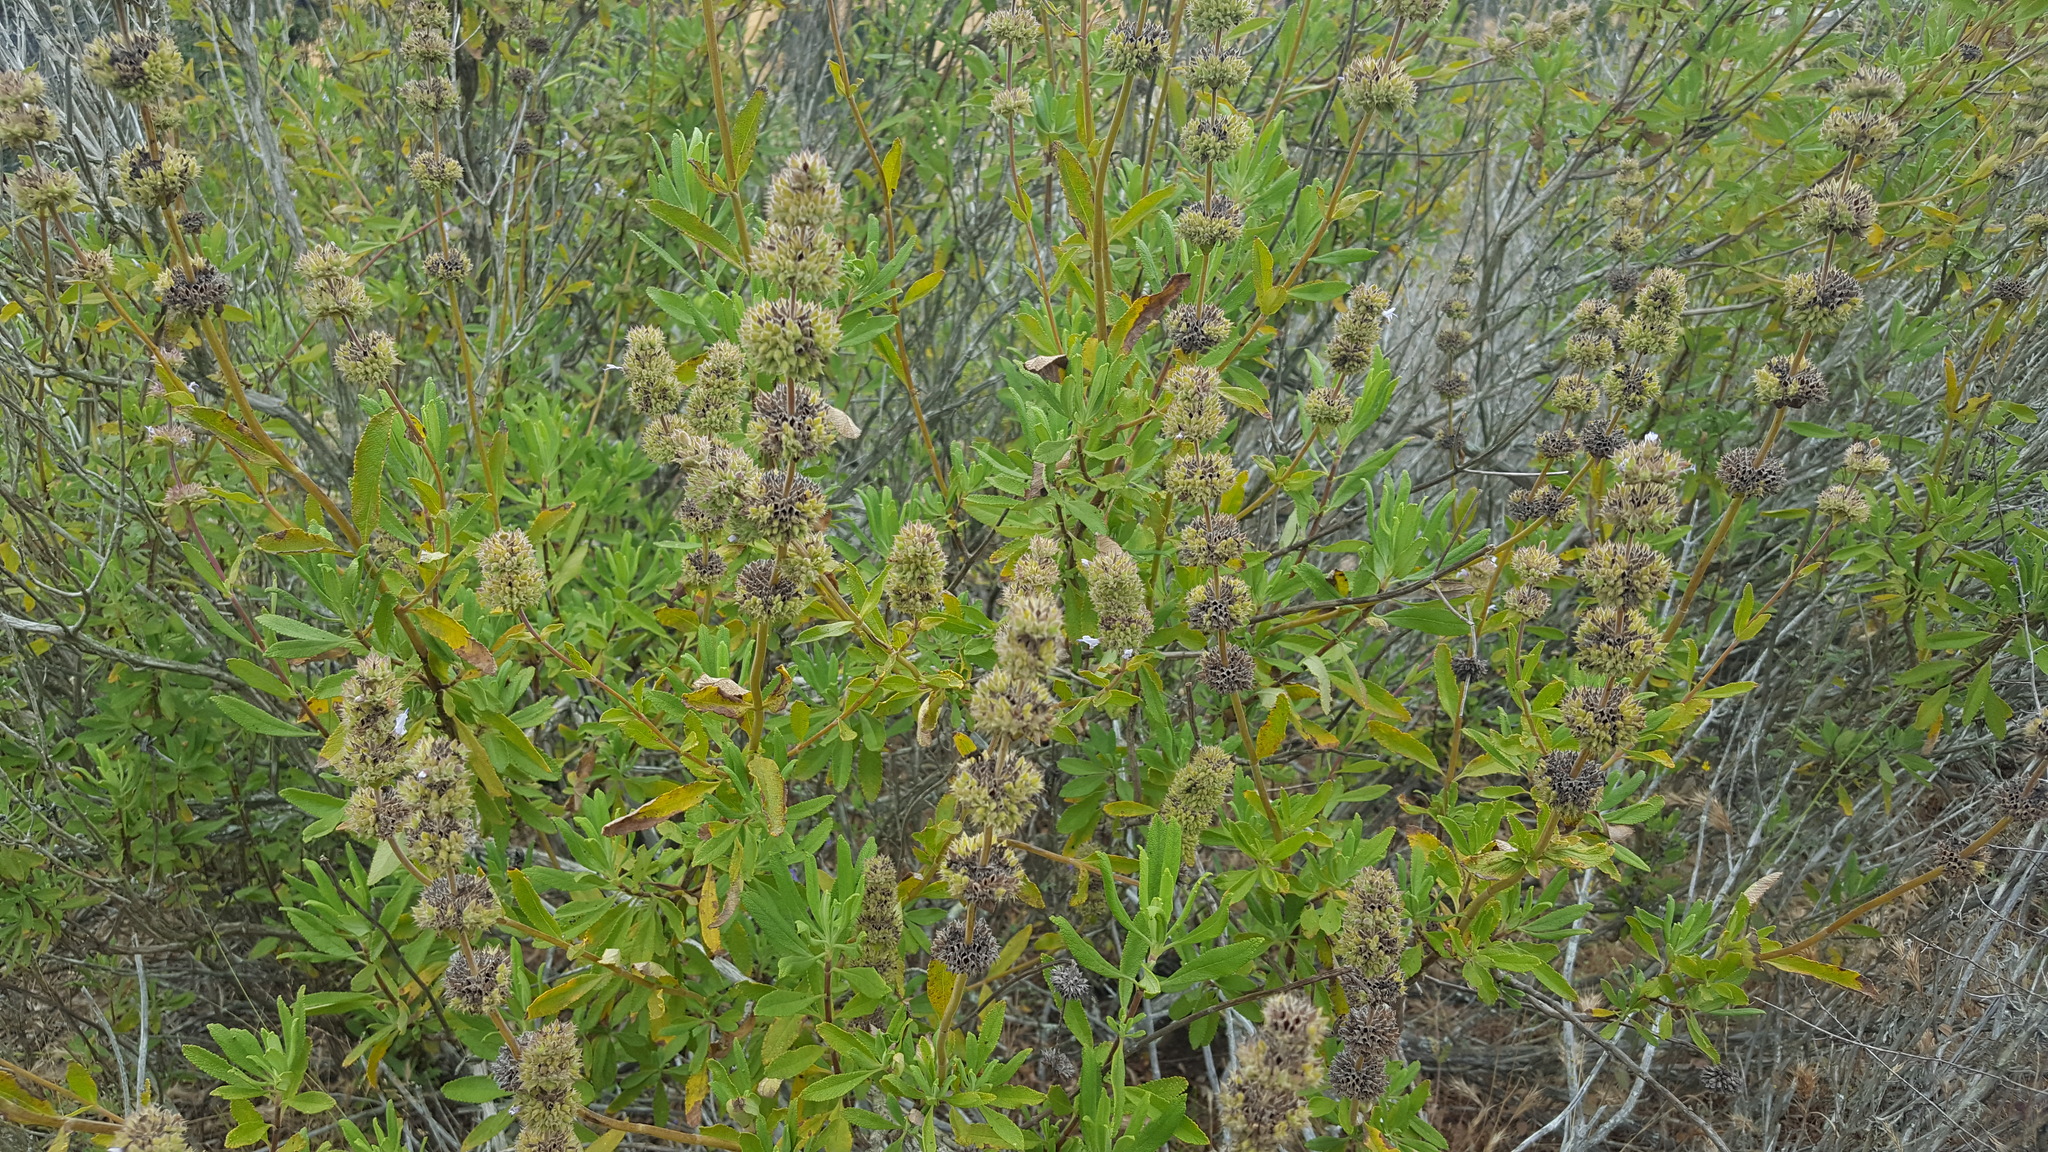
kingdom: Plantae
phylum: Tracheophyta
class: Magnoliopsida
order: Lamiales
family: Lamiaceae
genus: Salvia
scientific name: Salvia mellifera
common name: Black sage
